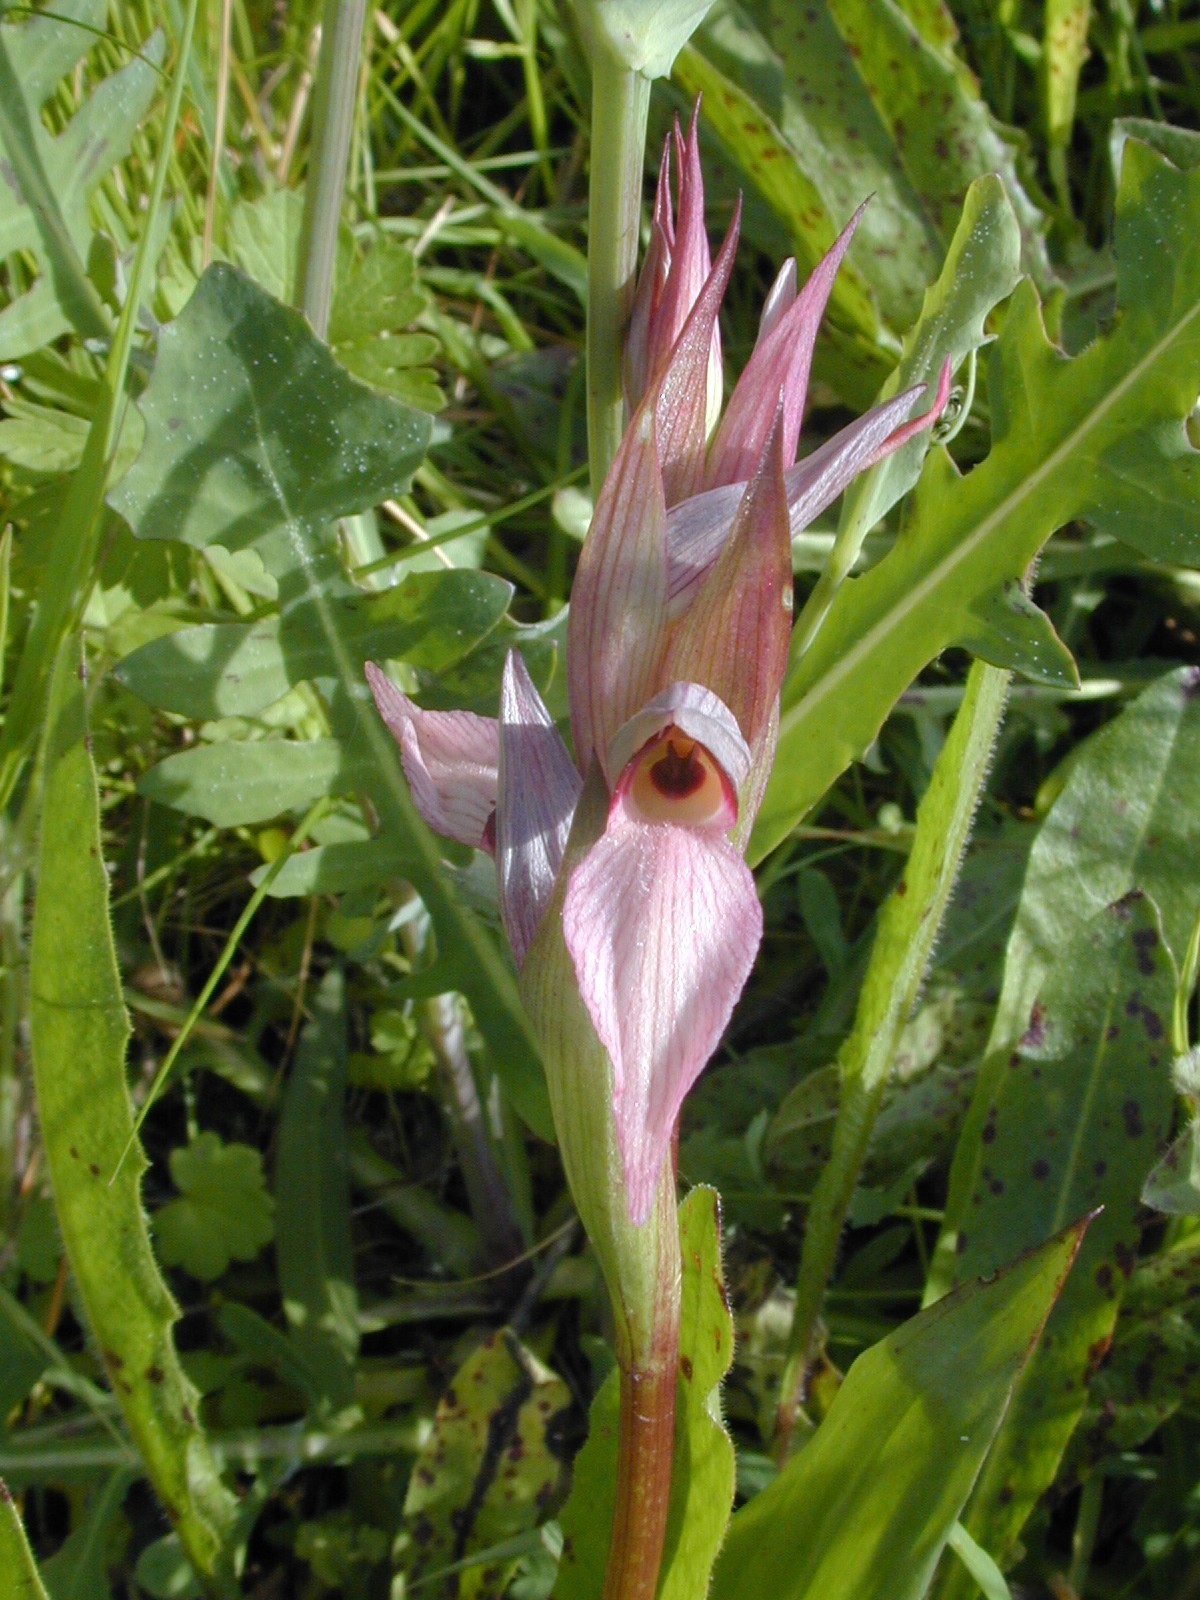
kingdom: Plantae
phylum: Tracheophyta
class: Liliopsida
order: Asparagales
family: Orchidaceae
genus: Serapias
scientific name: Serapias lingua
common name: Tongue-orchid
